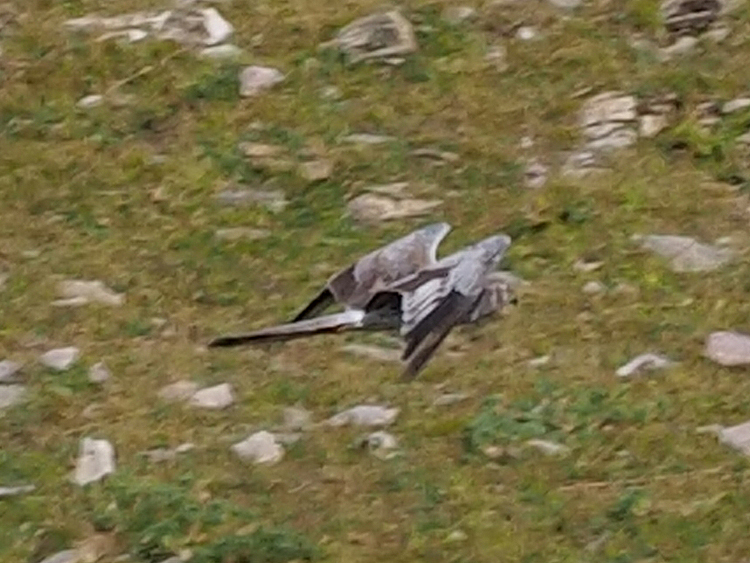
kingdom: Animalia
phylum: Chordata
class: Aves
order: Accipitriformes
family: Accipitridae
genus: Circus
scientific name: Circus pygargus
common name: Montagu's harrier
